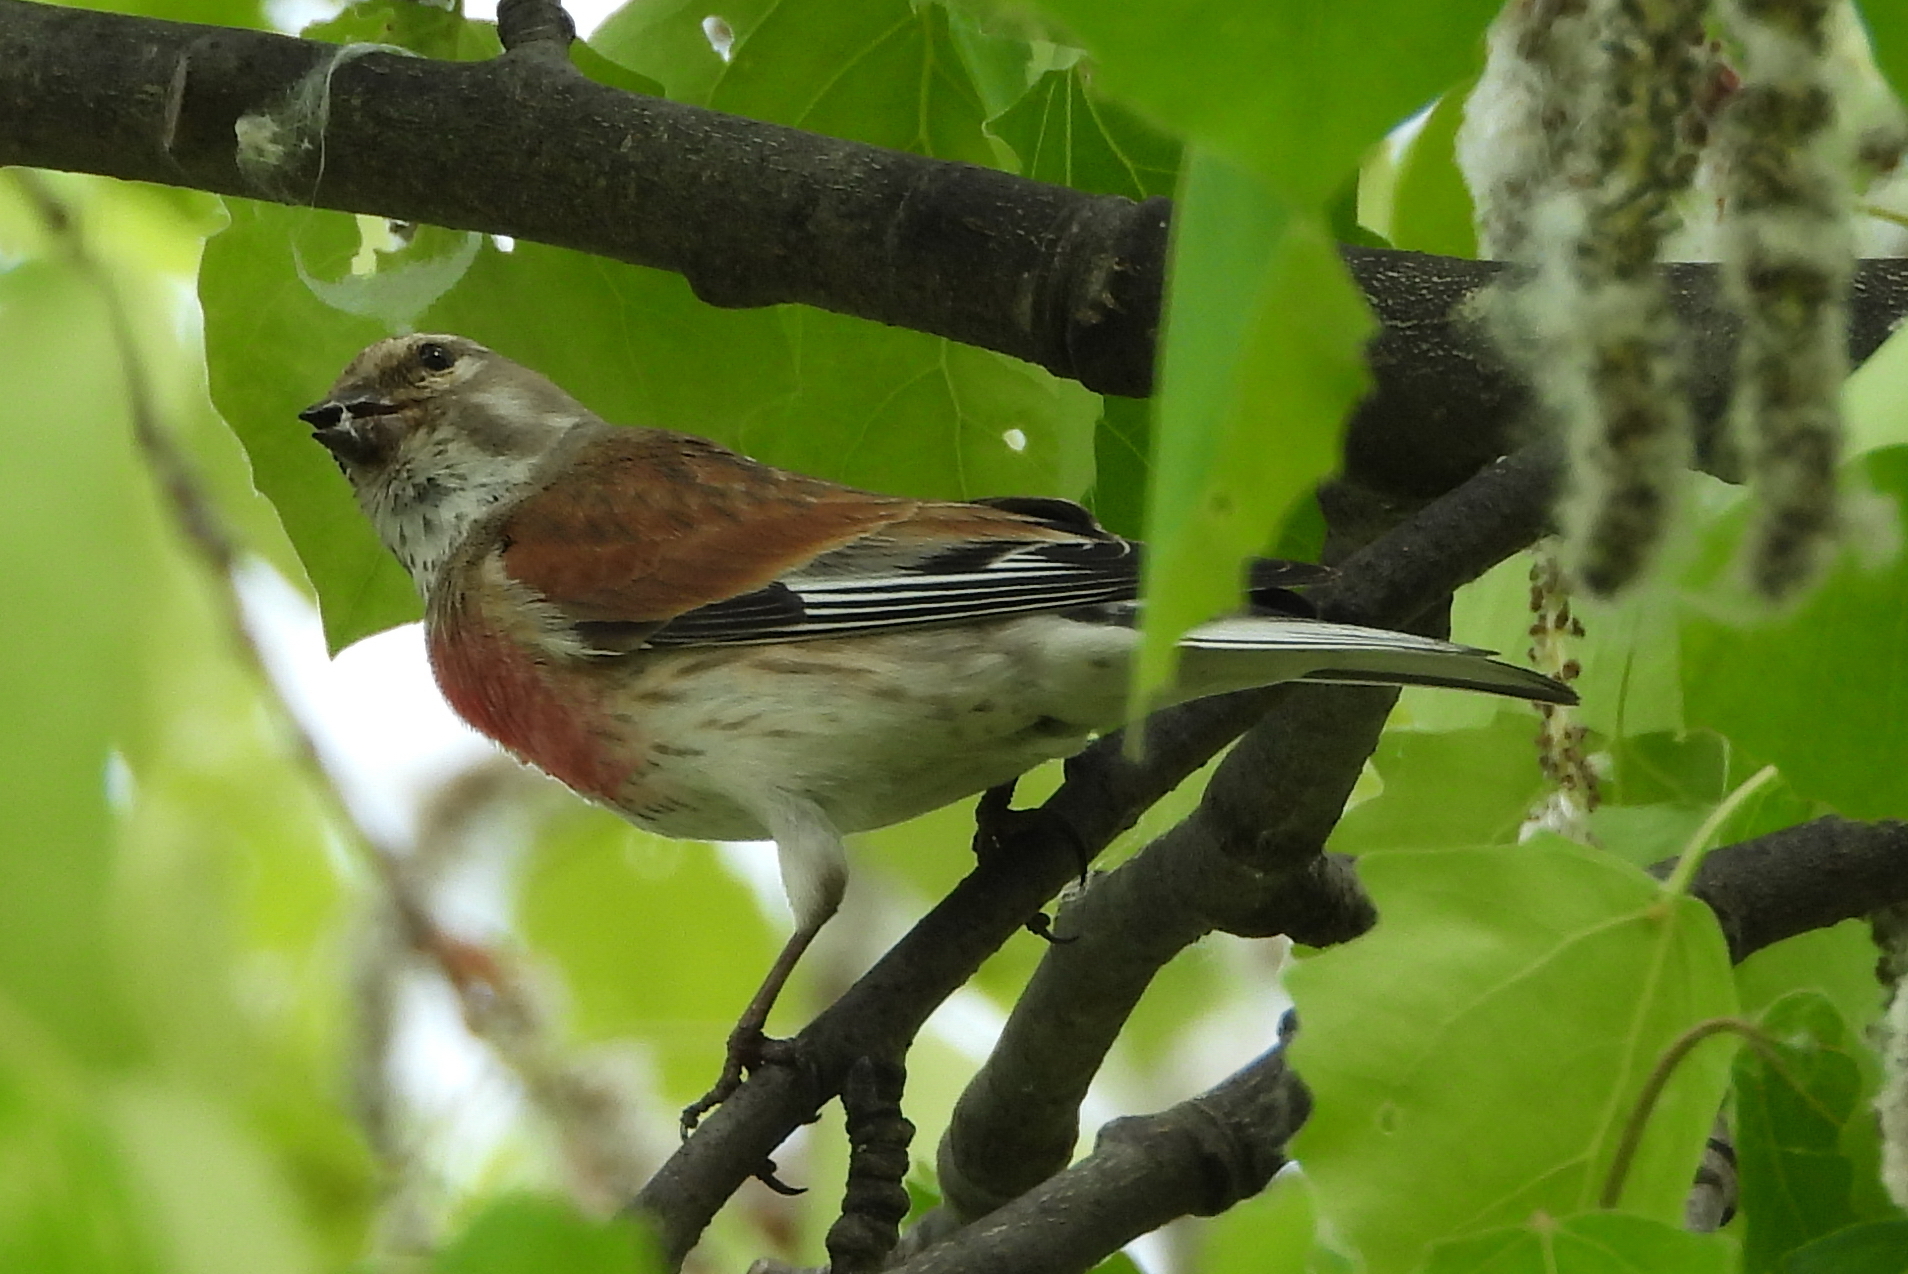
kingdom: Animalia
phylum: Chordata
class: Aves
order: Passeriformes
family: Fringillidae
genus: Linaria
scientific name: Linaria cannabina
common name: Common linnet
